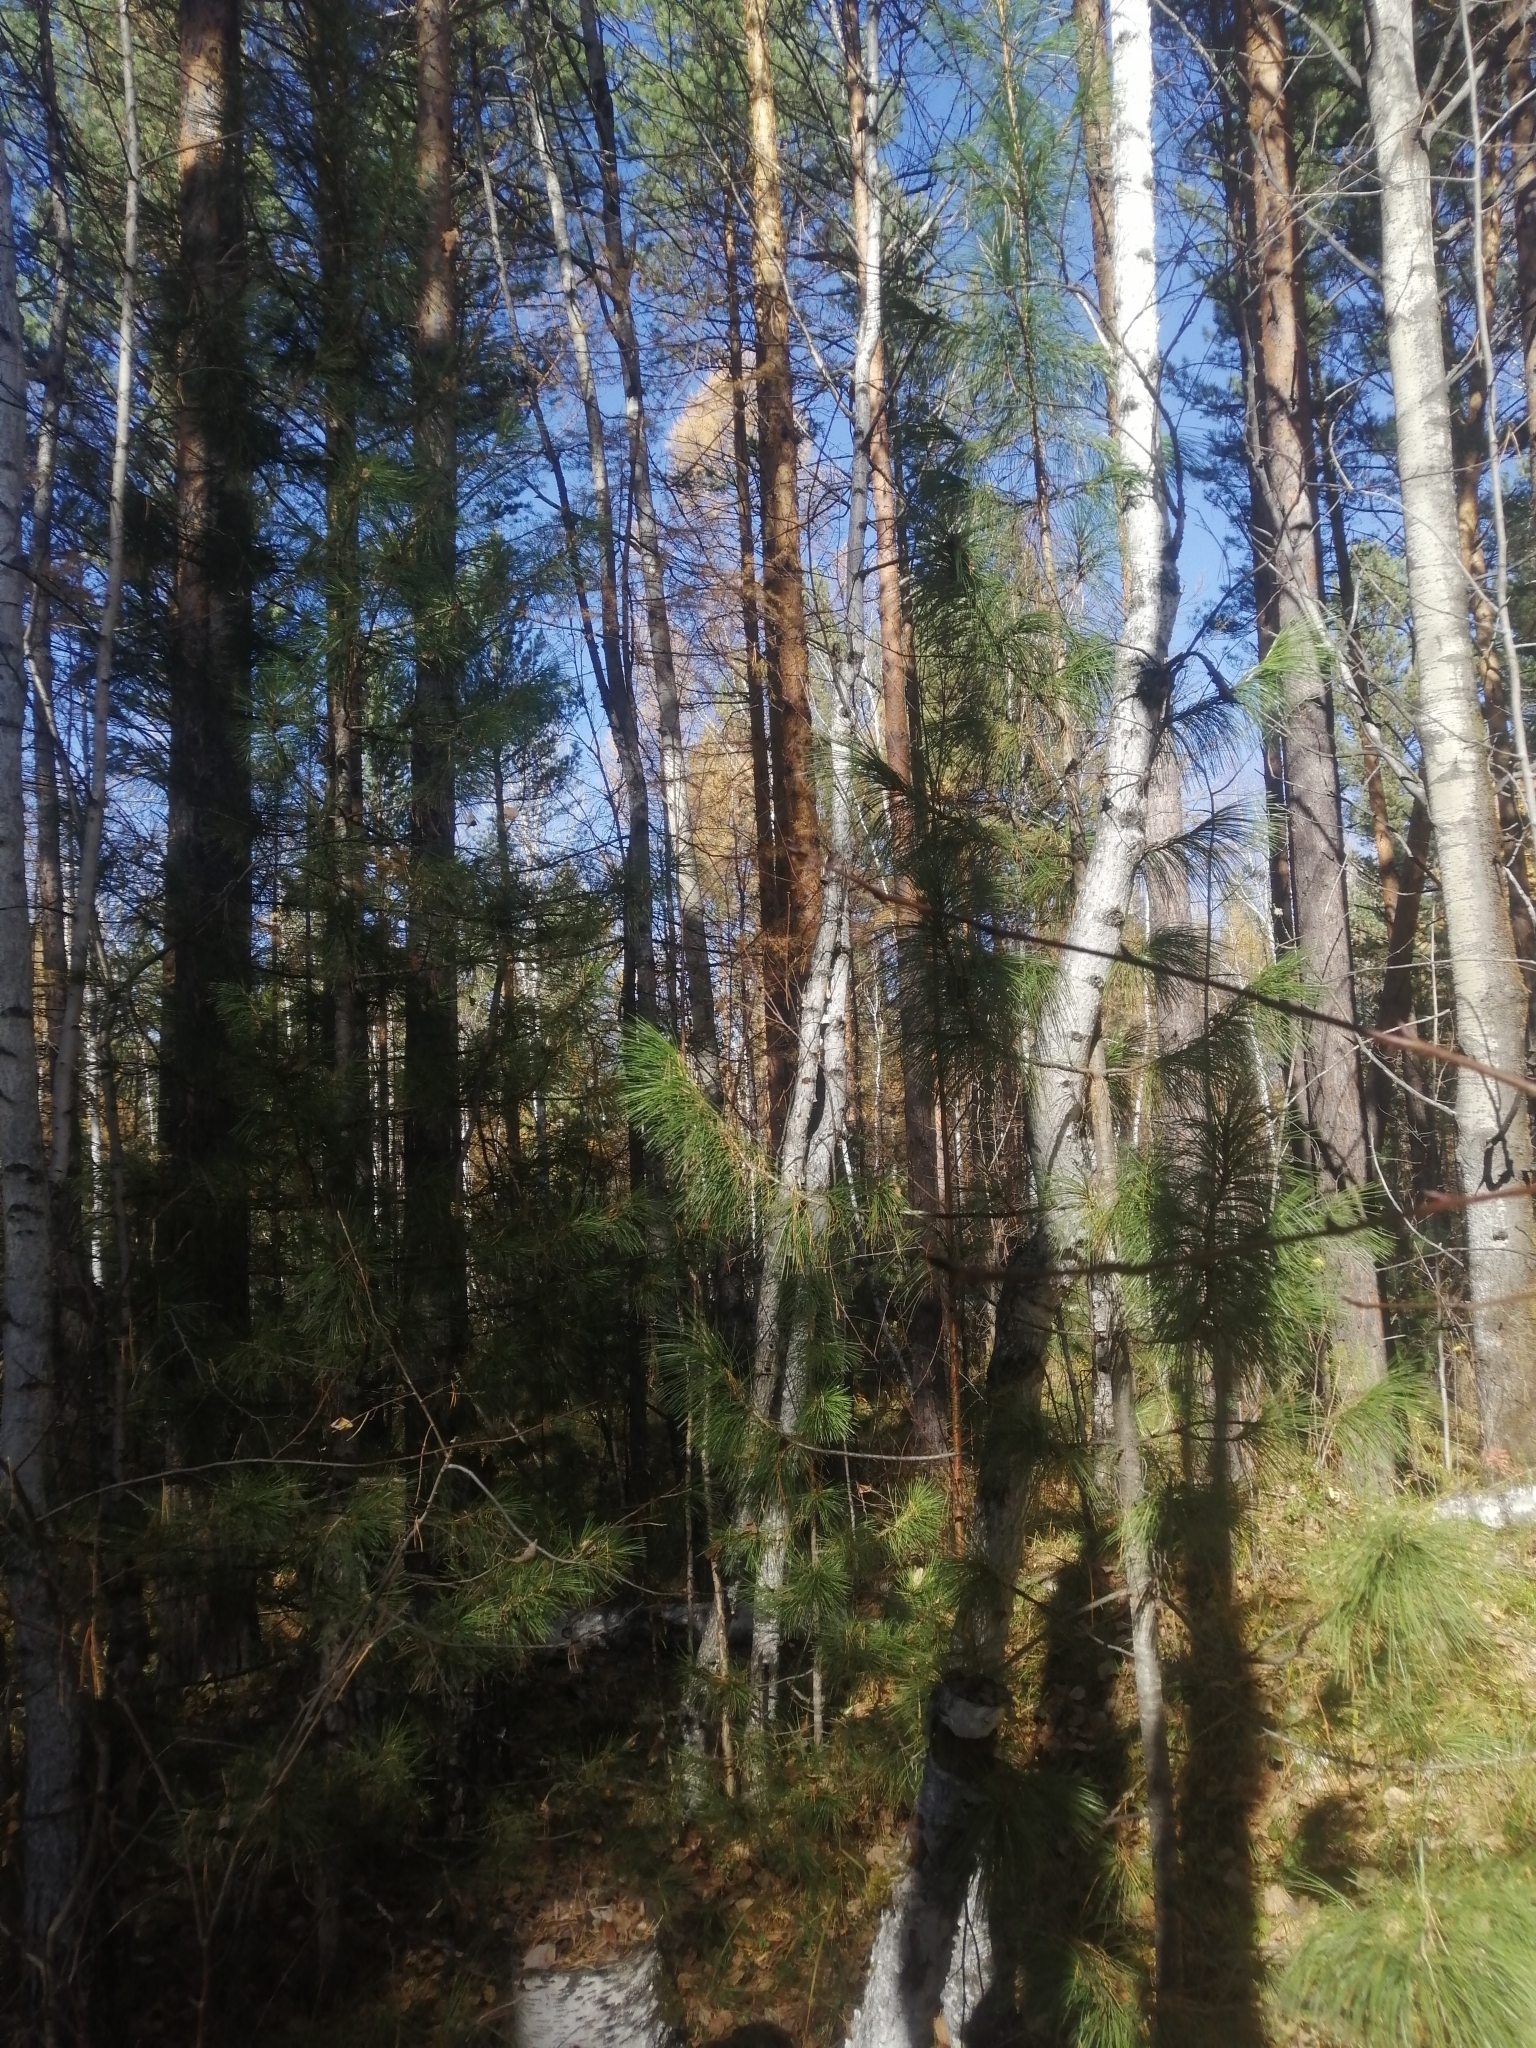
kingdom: Plantae
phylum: Tracheophyta
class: Pinopsida
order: Pinales
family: Pinaceae
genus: Pinus
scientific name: Pinus sibirica
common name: Siberian pine
